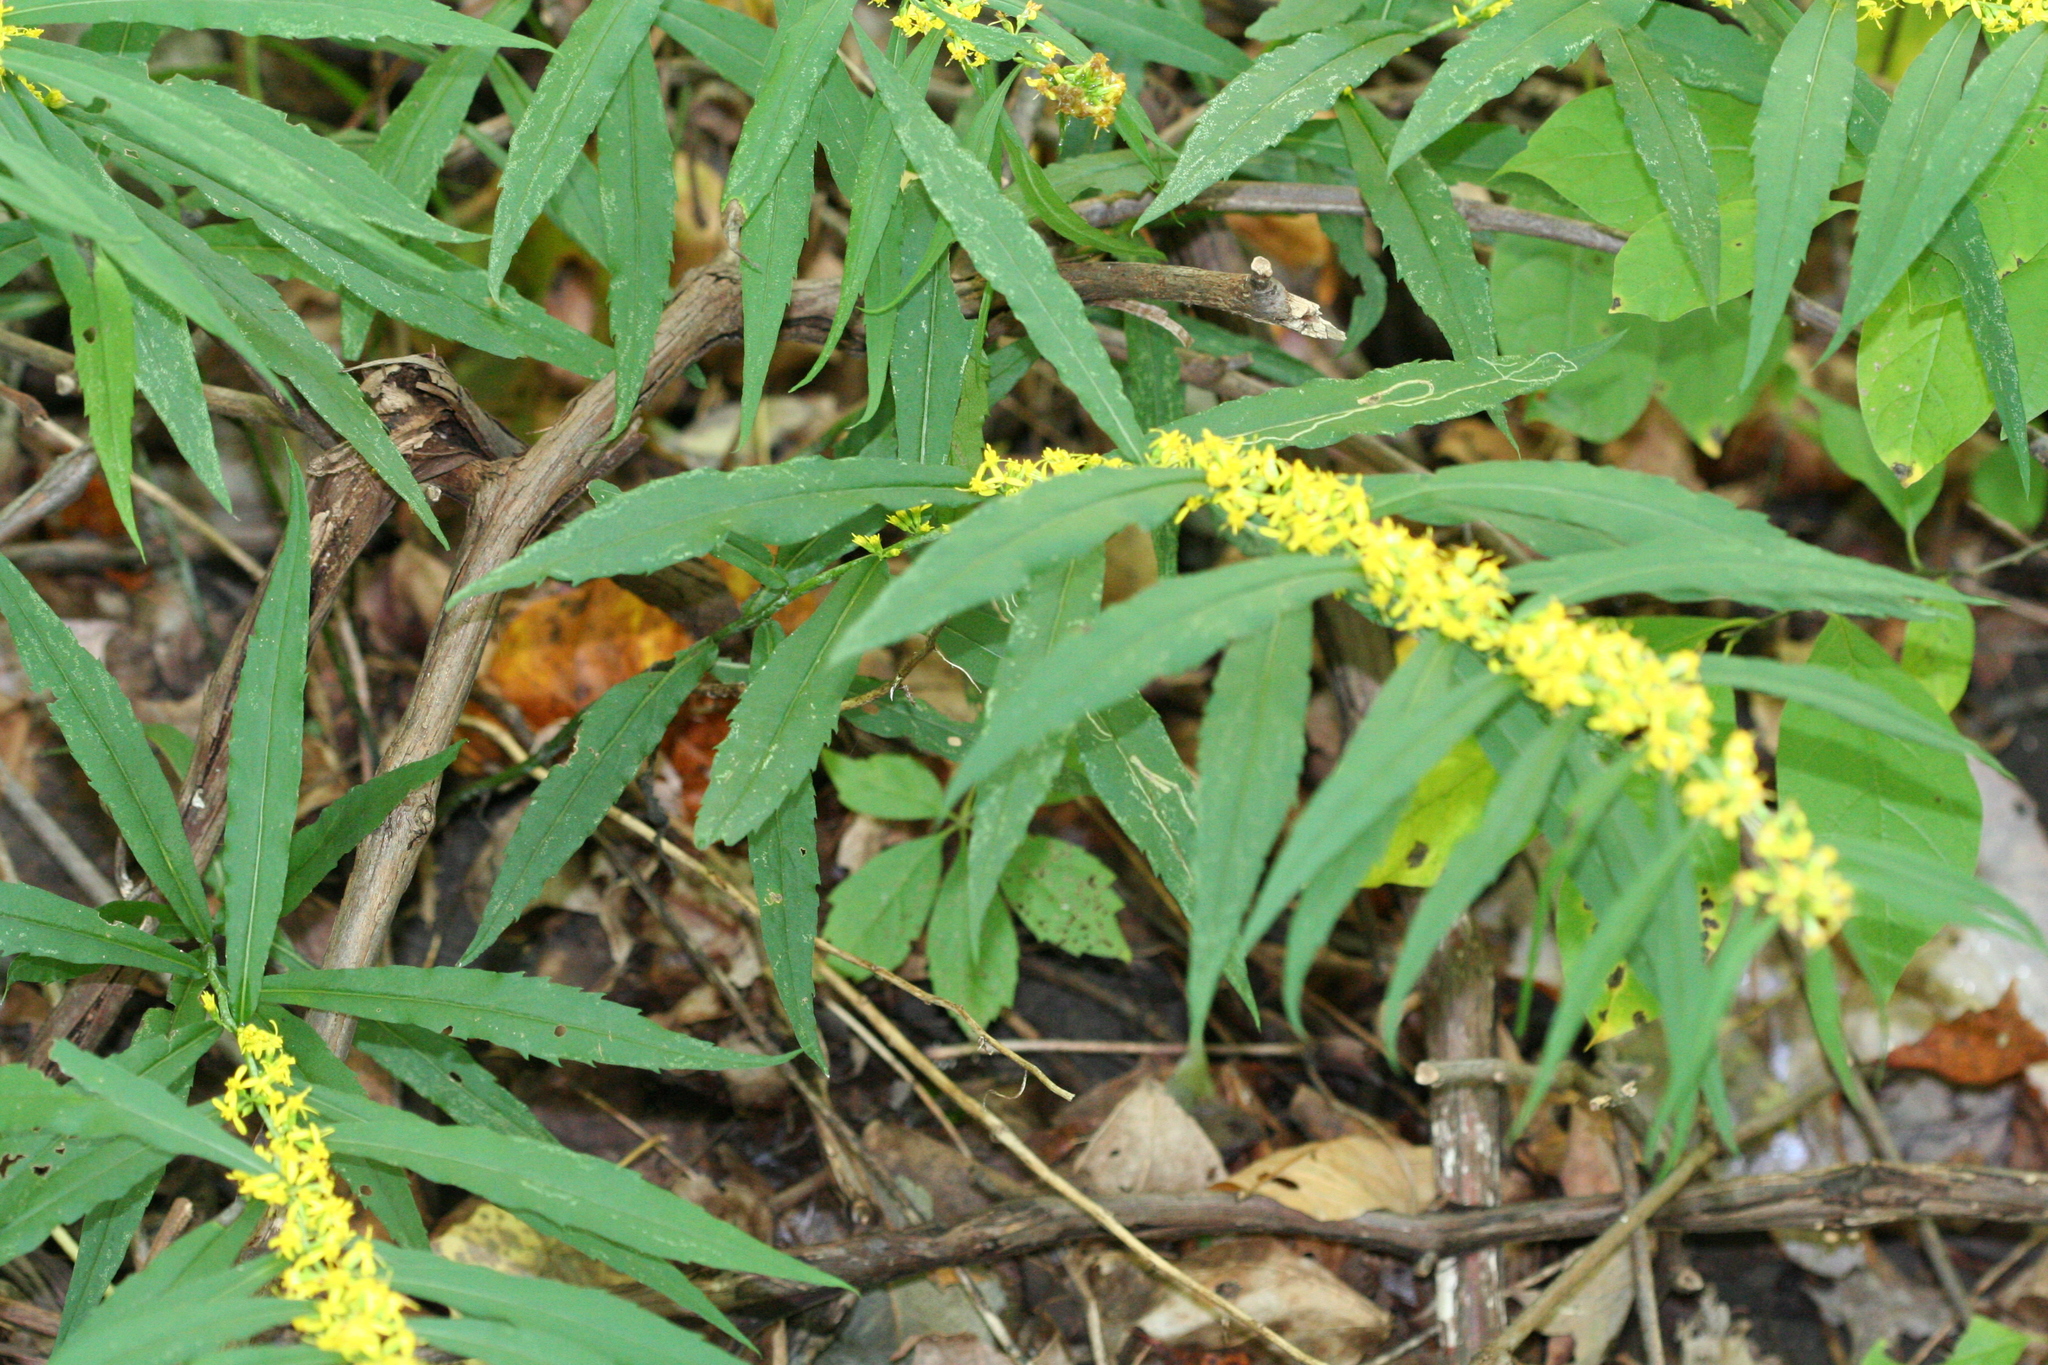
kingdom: Plantae
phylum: Tracheophyta
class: Magnoliopsida
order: Asterales
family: Asteraceae
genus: Solidago
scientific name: Solidago caesia
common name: Woodland goldenrod
